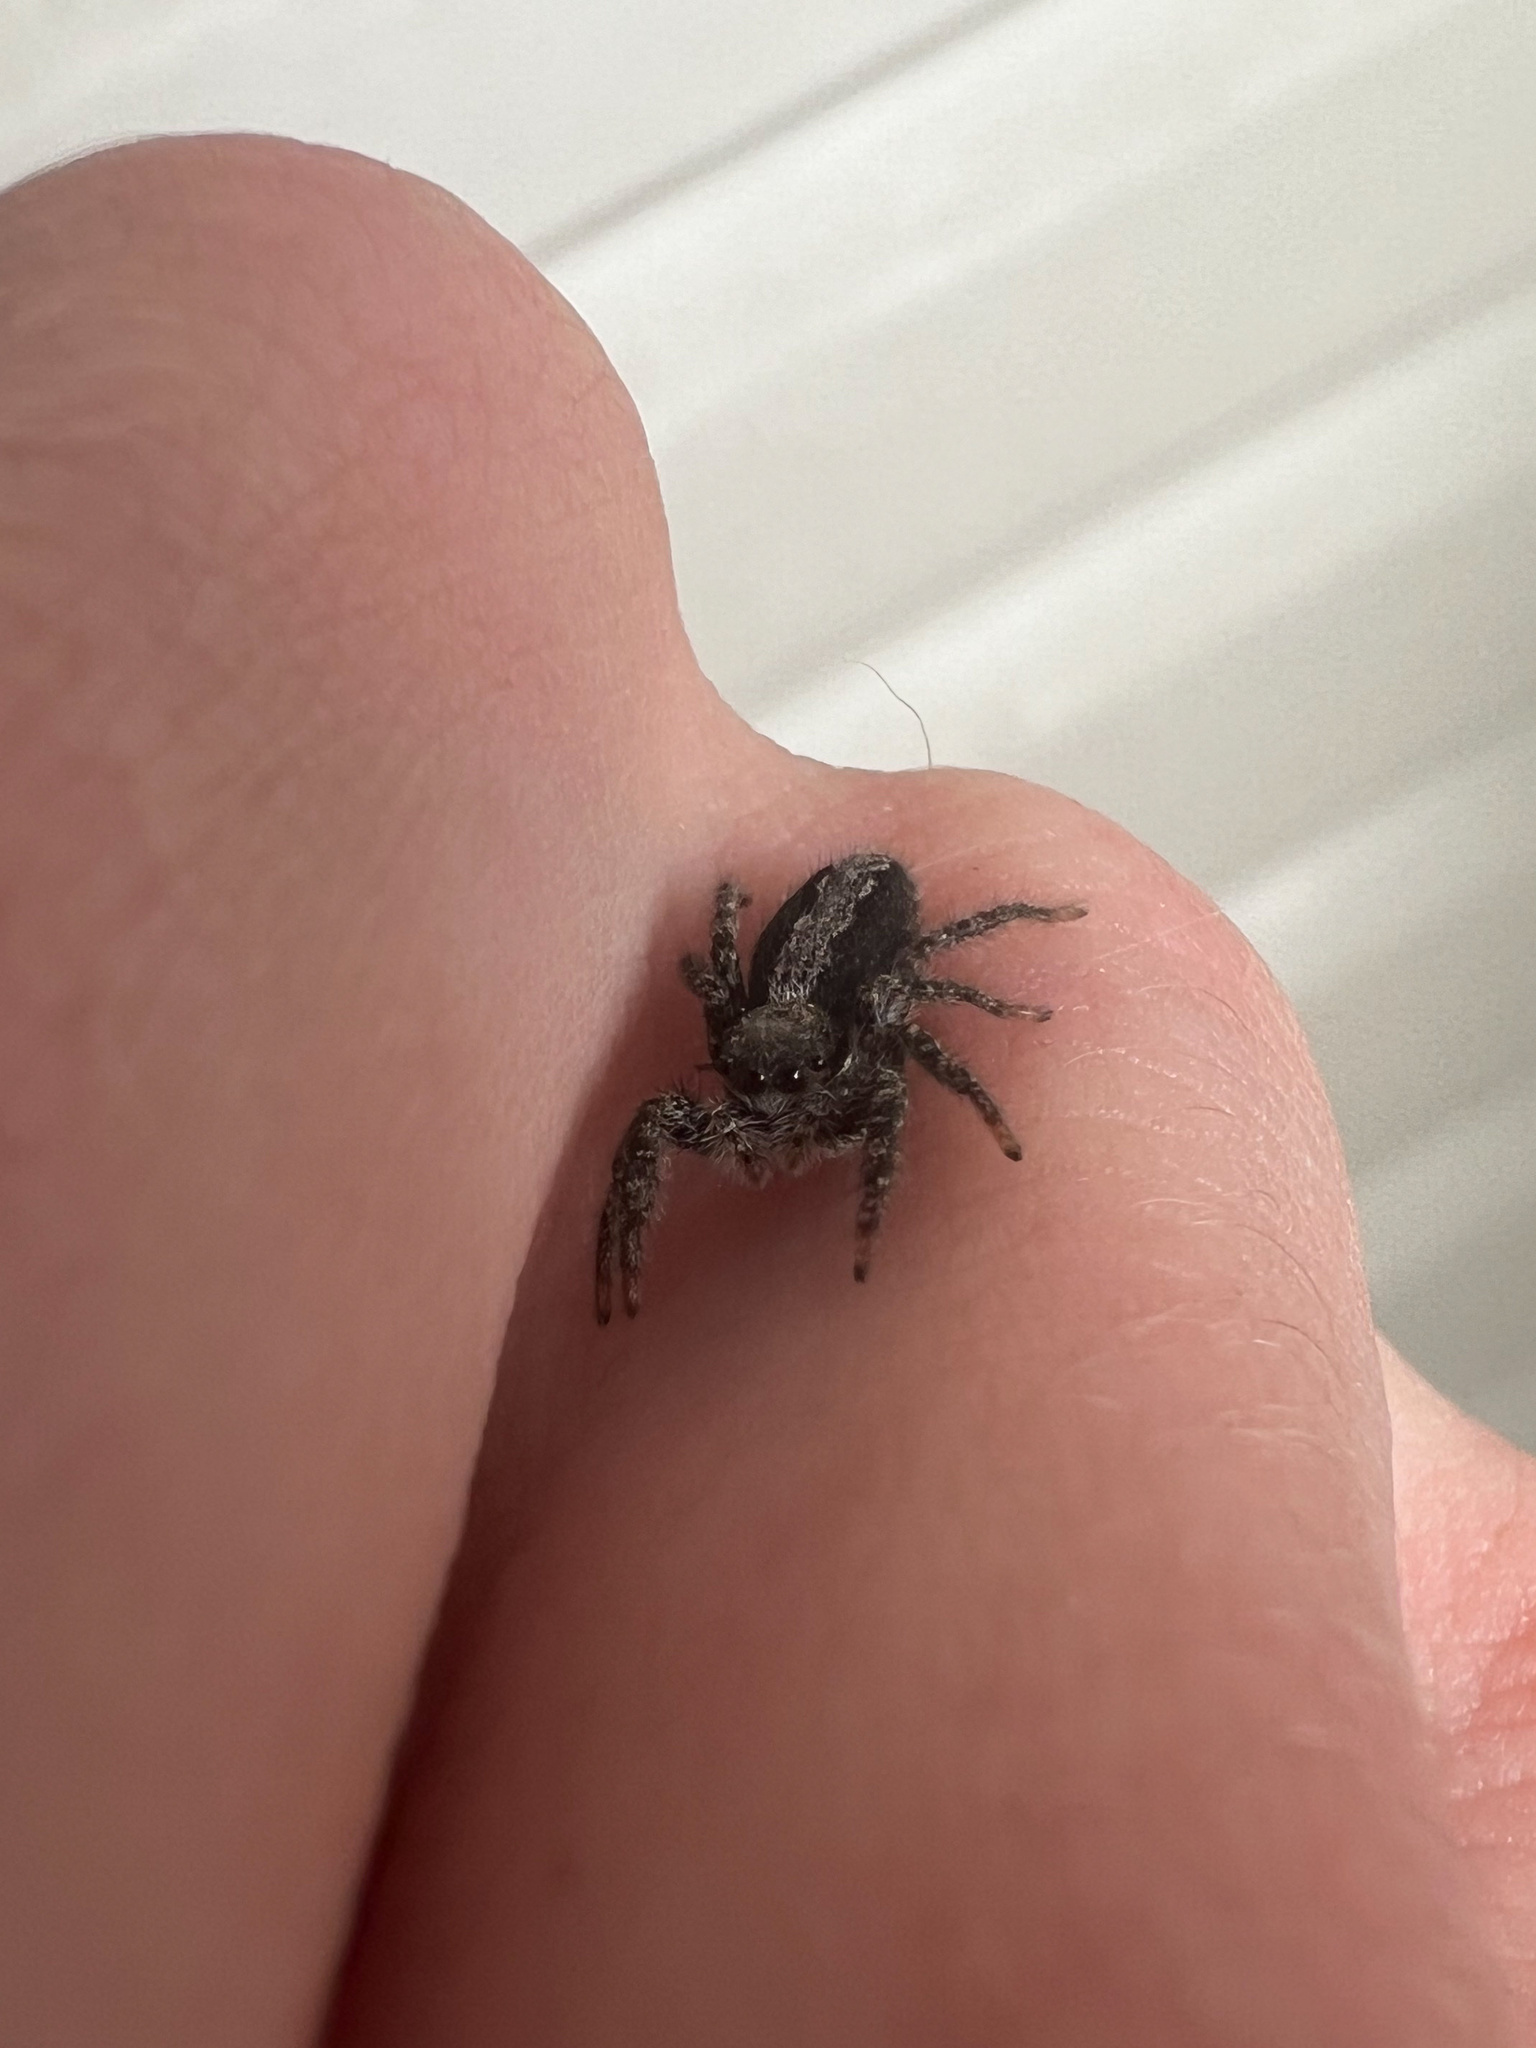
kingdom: Animalia
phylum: Arthropoda
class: Arachnida
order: Araneae
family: Salticidae
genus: Platycryptus
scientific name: Platycryptus californicus
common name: Jumping spiders
